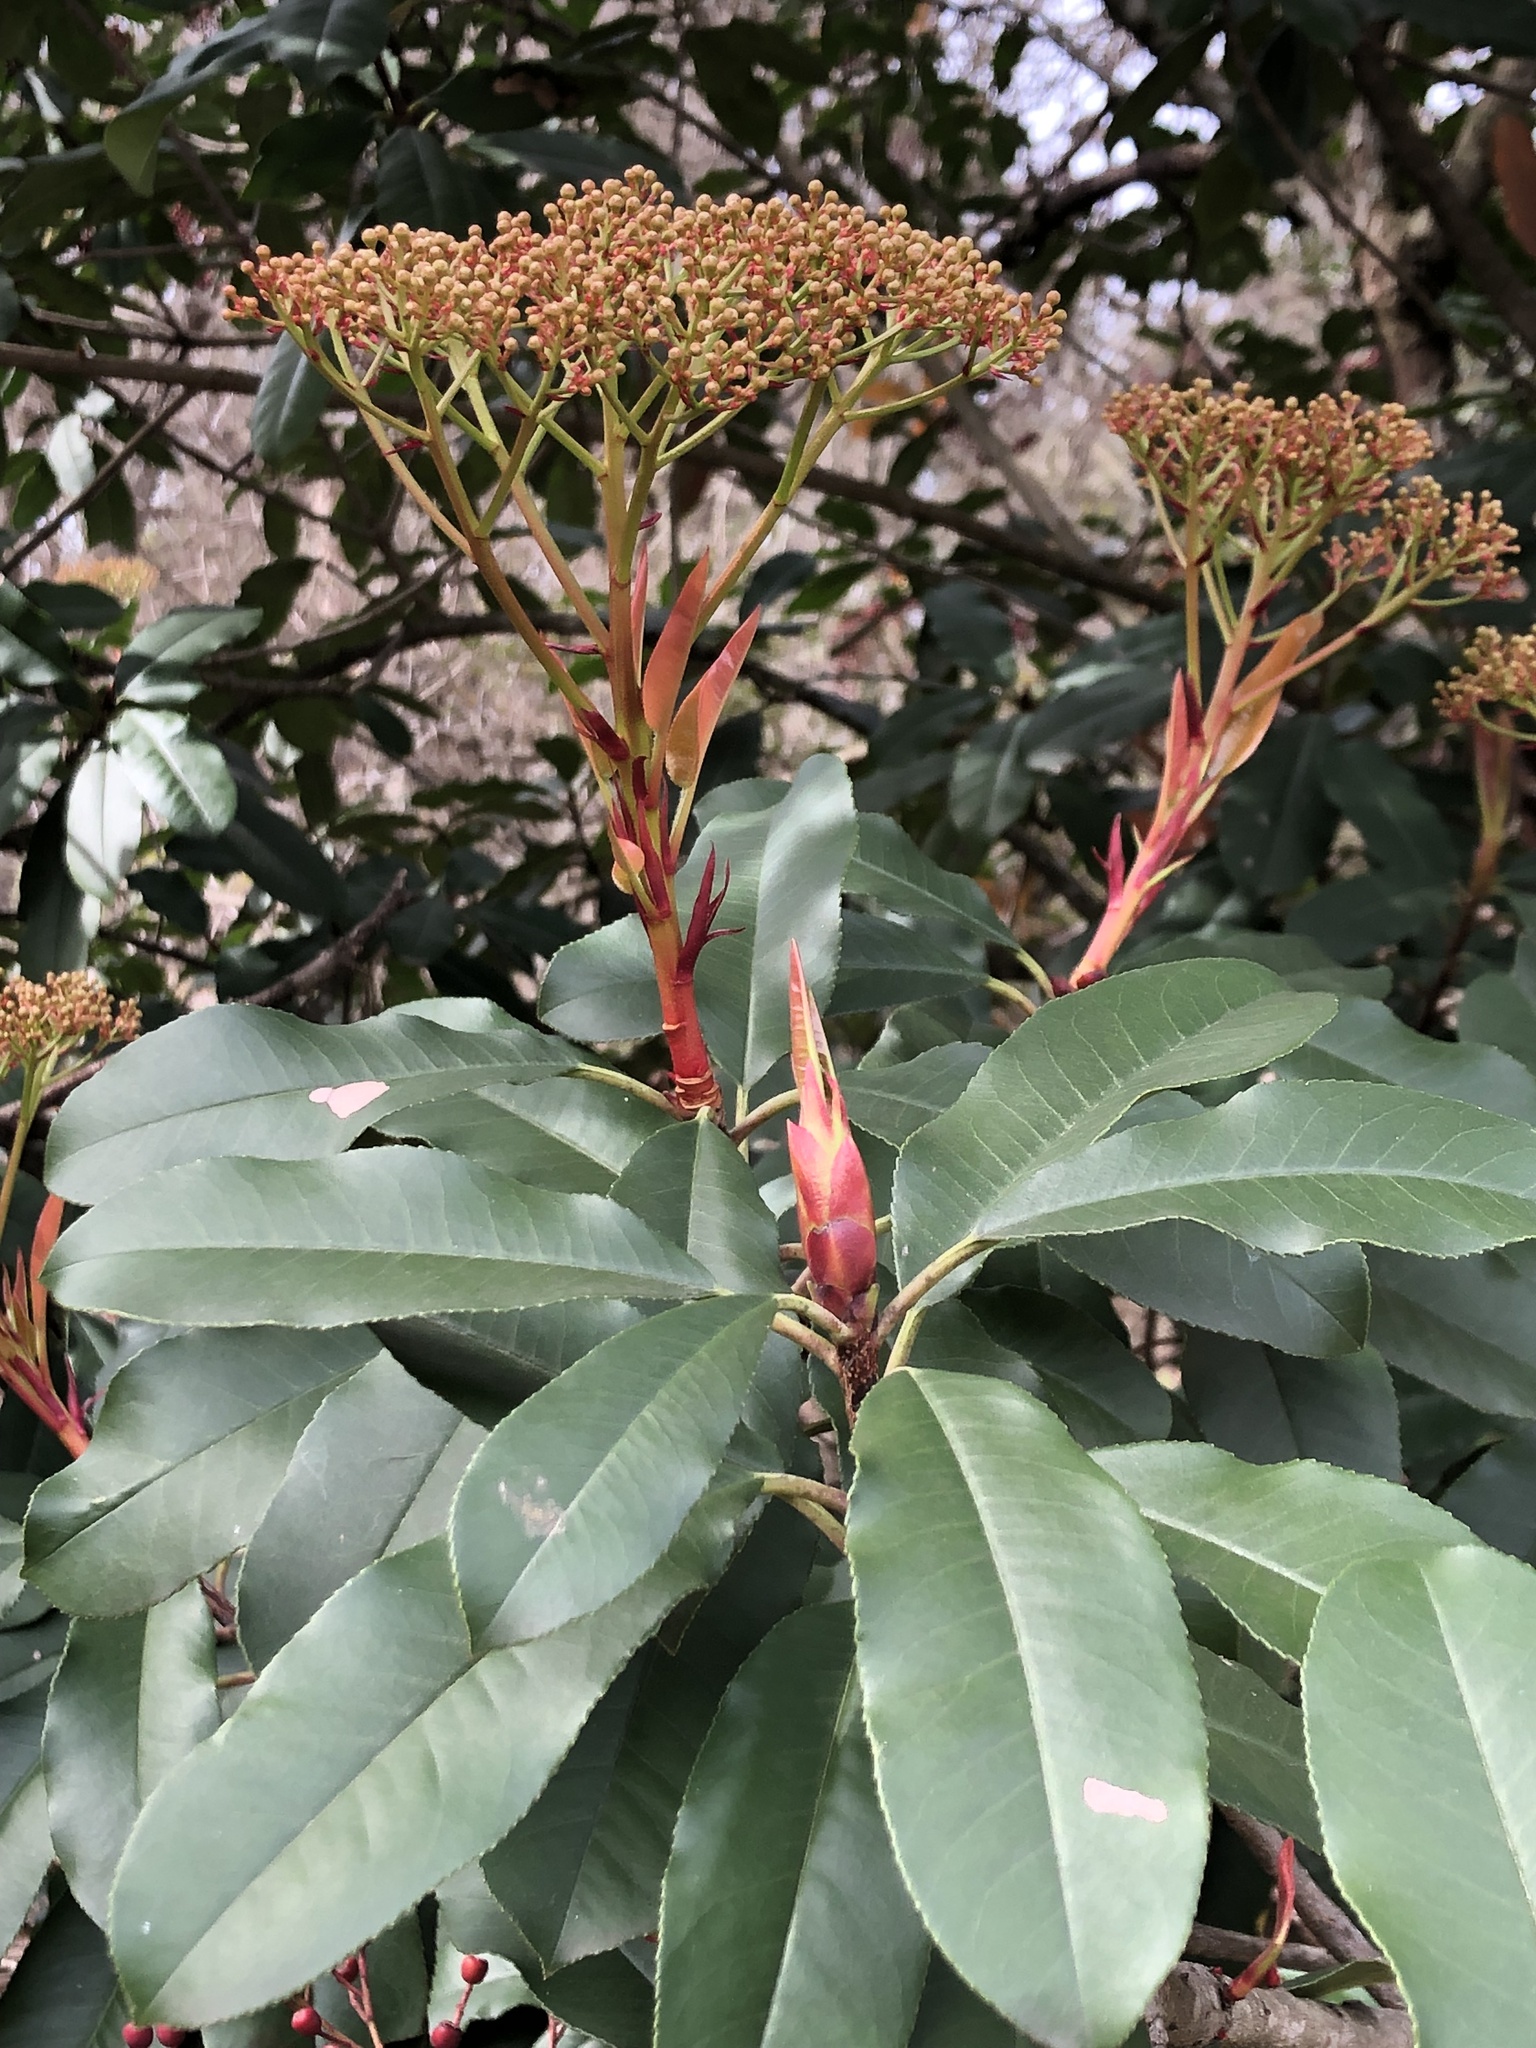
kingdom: Plantae
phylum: Tracheophyta
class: Magnoliopsida
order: Rosales
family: Rosaceae
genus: Photinia
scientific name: Photinia serratifolia
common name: Taiwanese photinia
